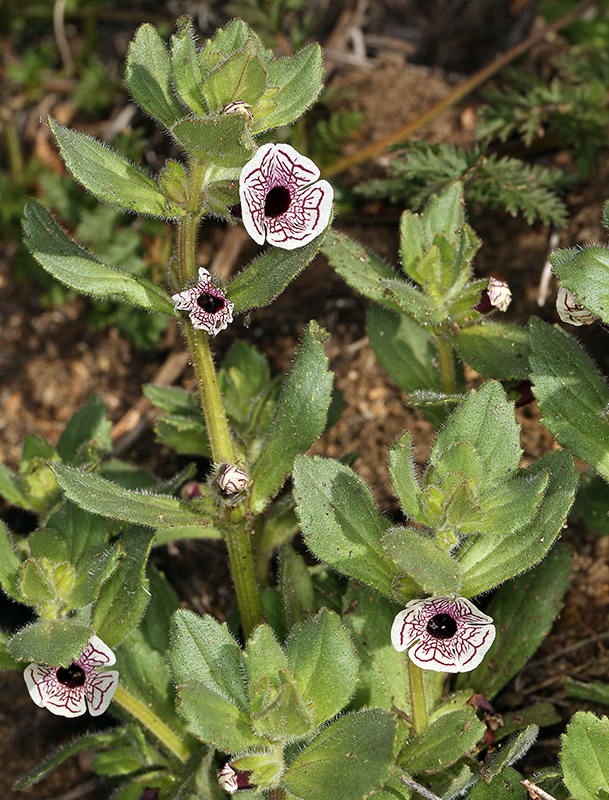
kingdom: Plantae
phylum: Tracheophyta
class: Magnoliopsida
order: Lamiales
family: Phrymaceae
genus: Diplacus
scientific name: Diplacus pictus
